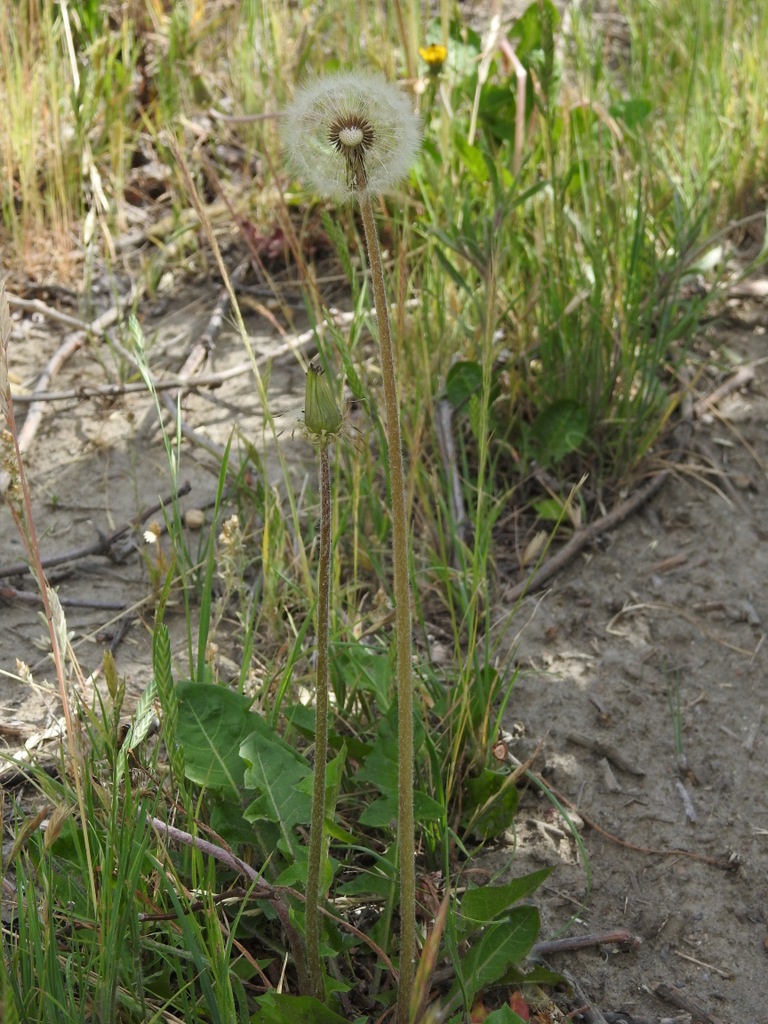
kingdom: Plantae
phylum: Tracheophyta
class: Magnoliopsida
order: Asterales
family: Asteraceae
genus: Taraxacum
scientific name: Taraxacum officinale
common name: Common dandelion
